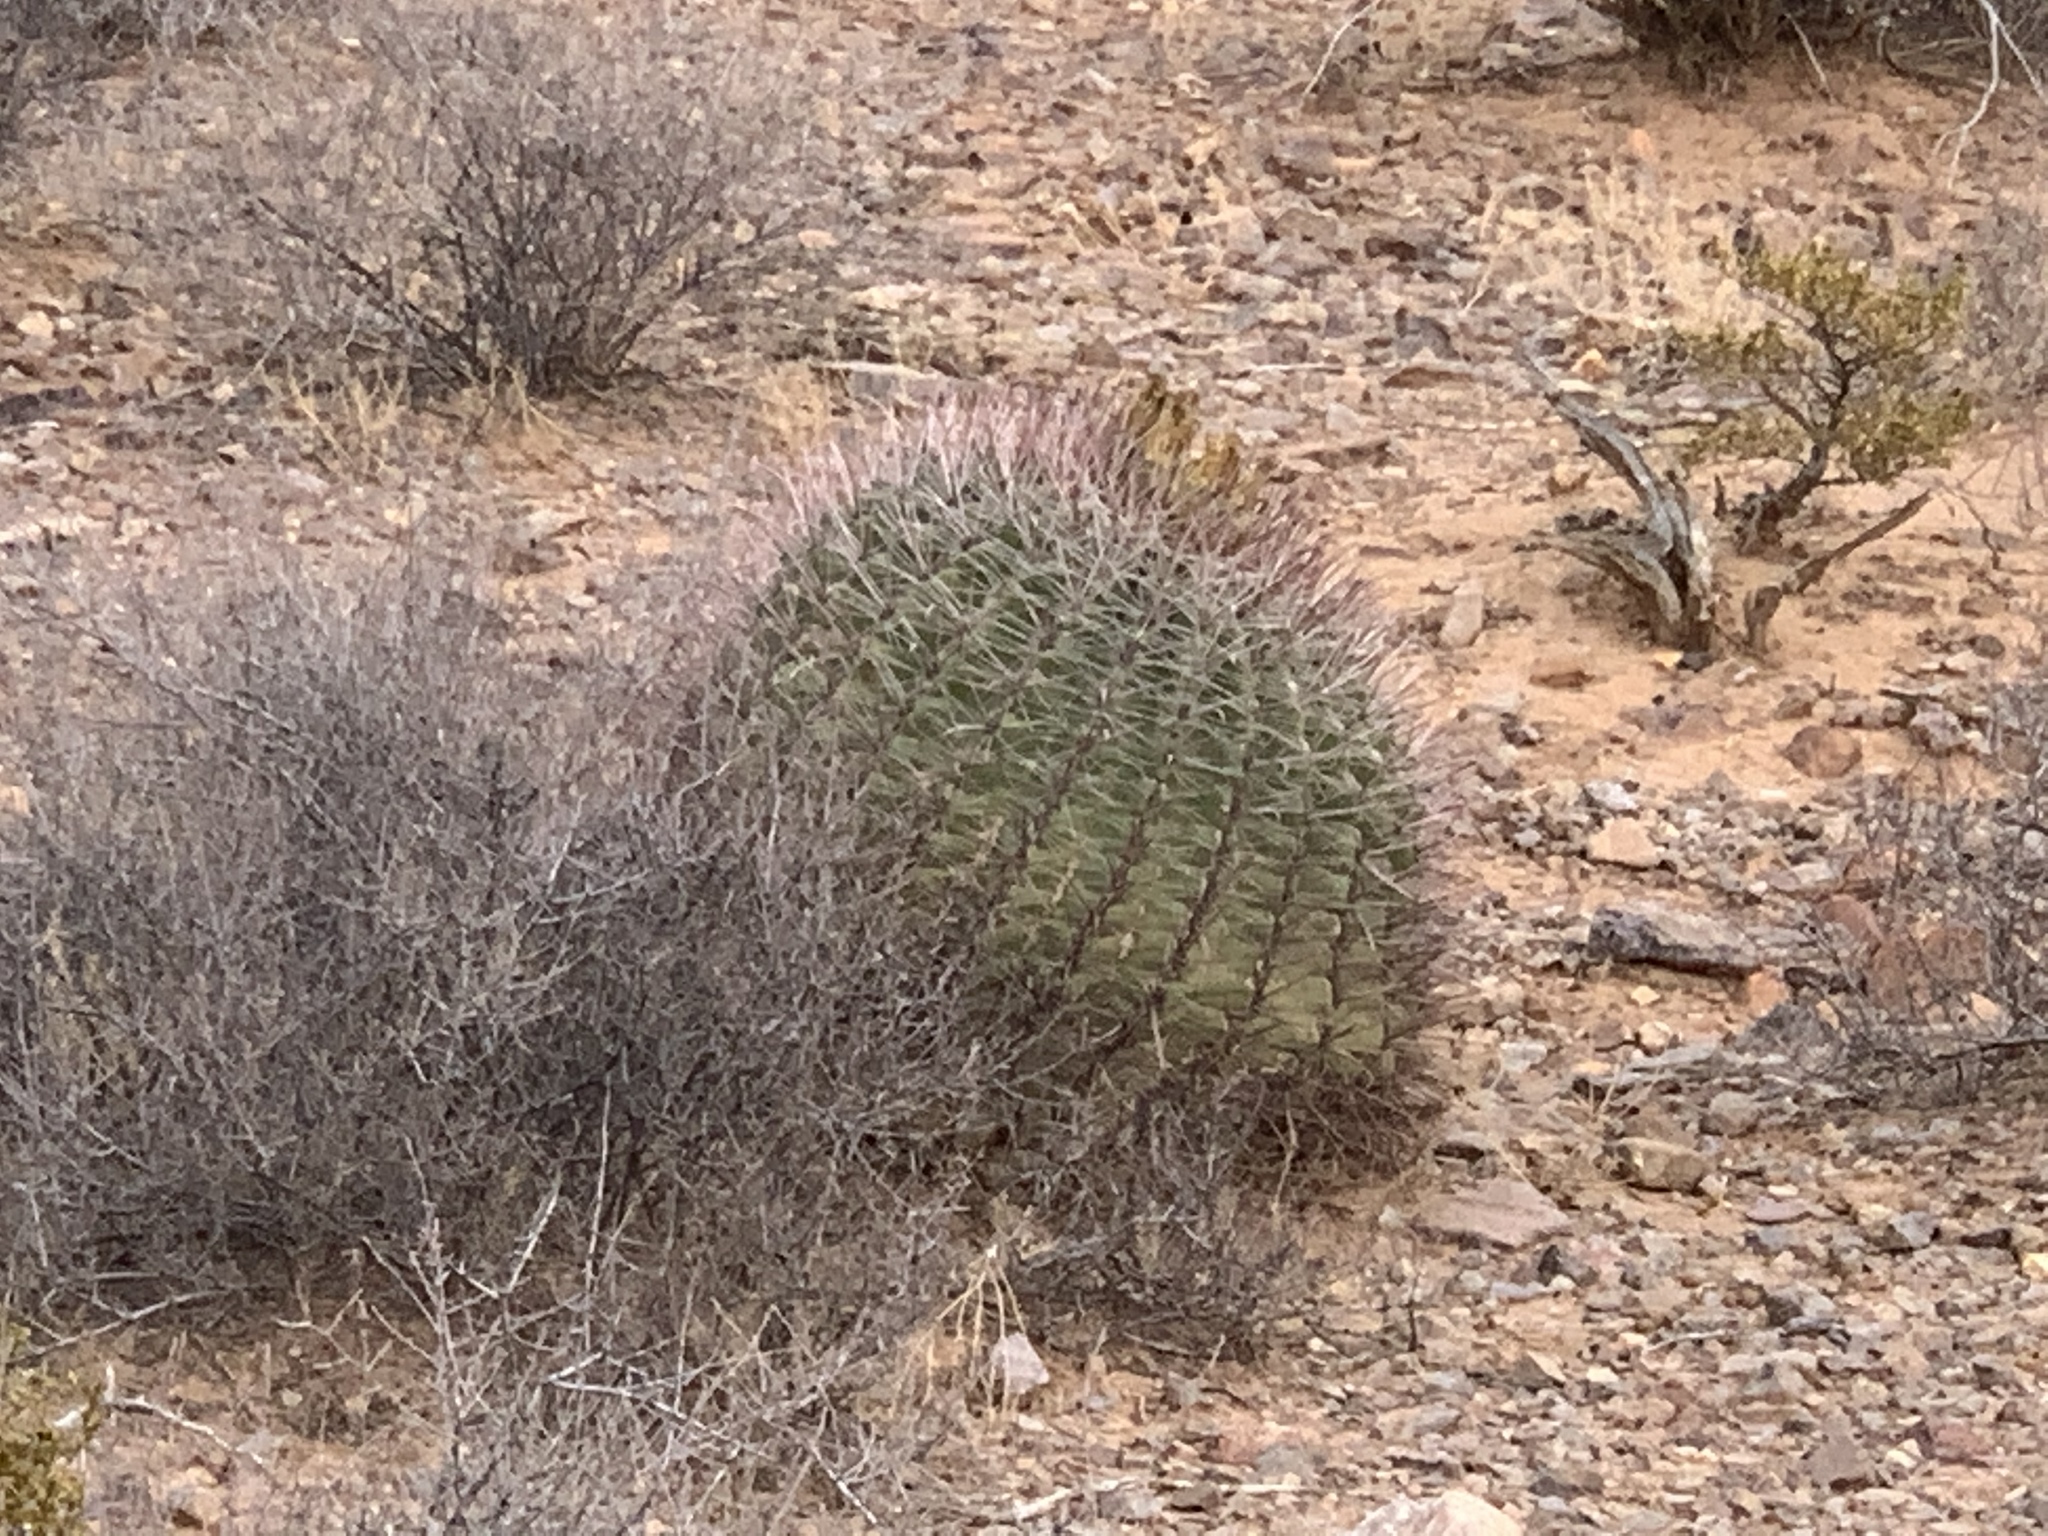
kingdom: Plantae
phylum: Tracheophyta
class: Magnoliopsida
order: Caryophyllales
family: Cactaceae
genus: Ferocactus
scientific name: Ferocactus wislizeni
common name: Candy barrel cactus
